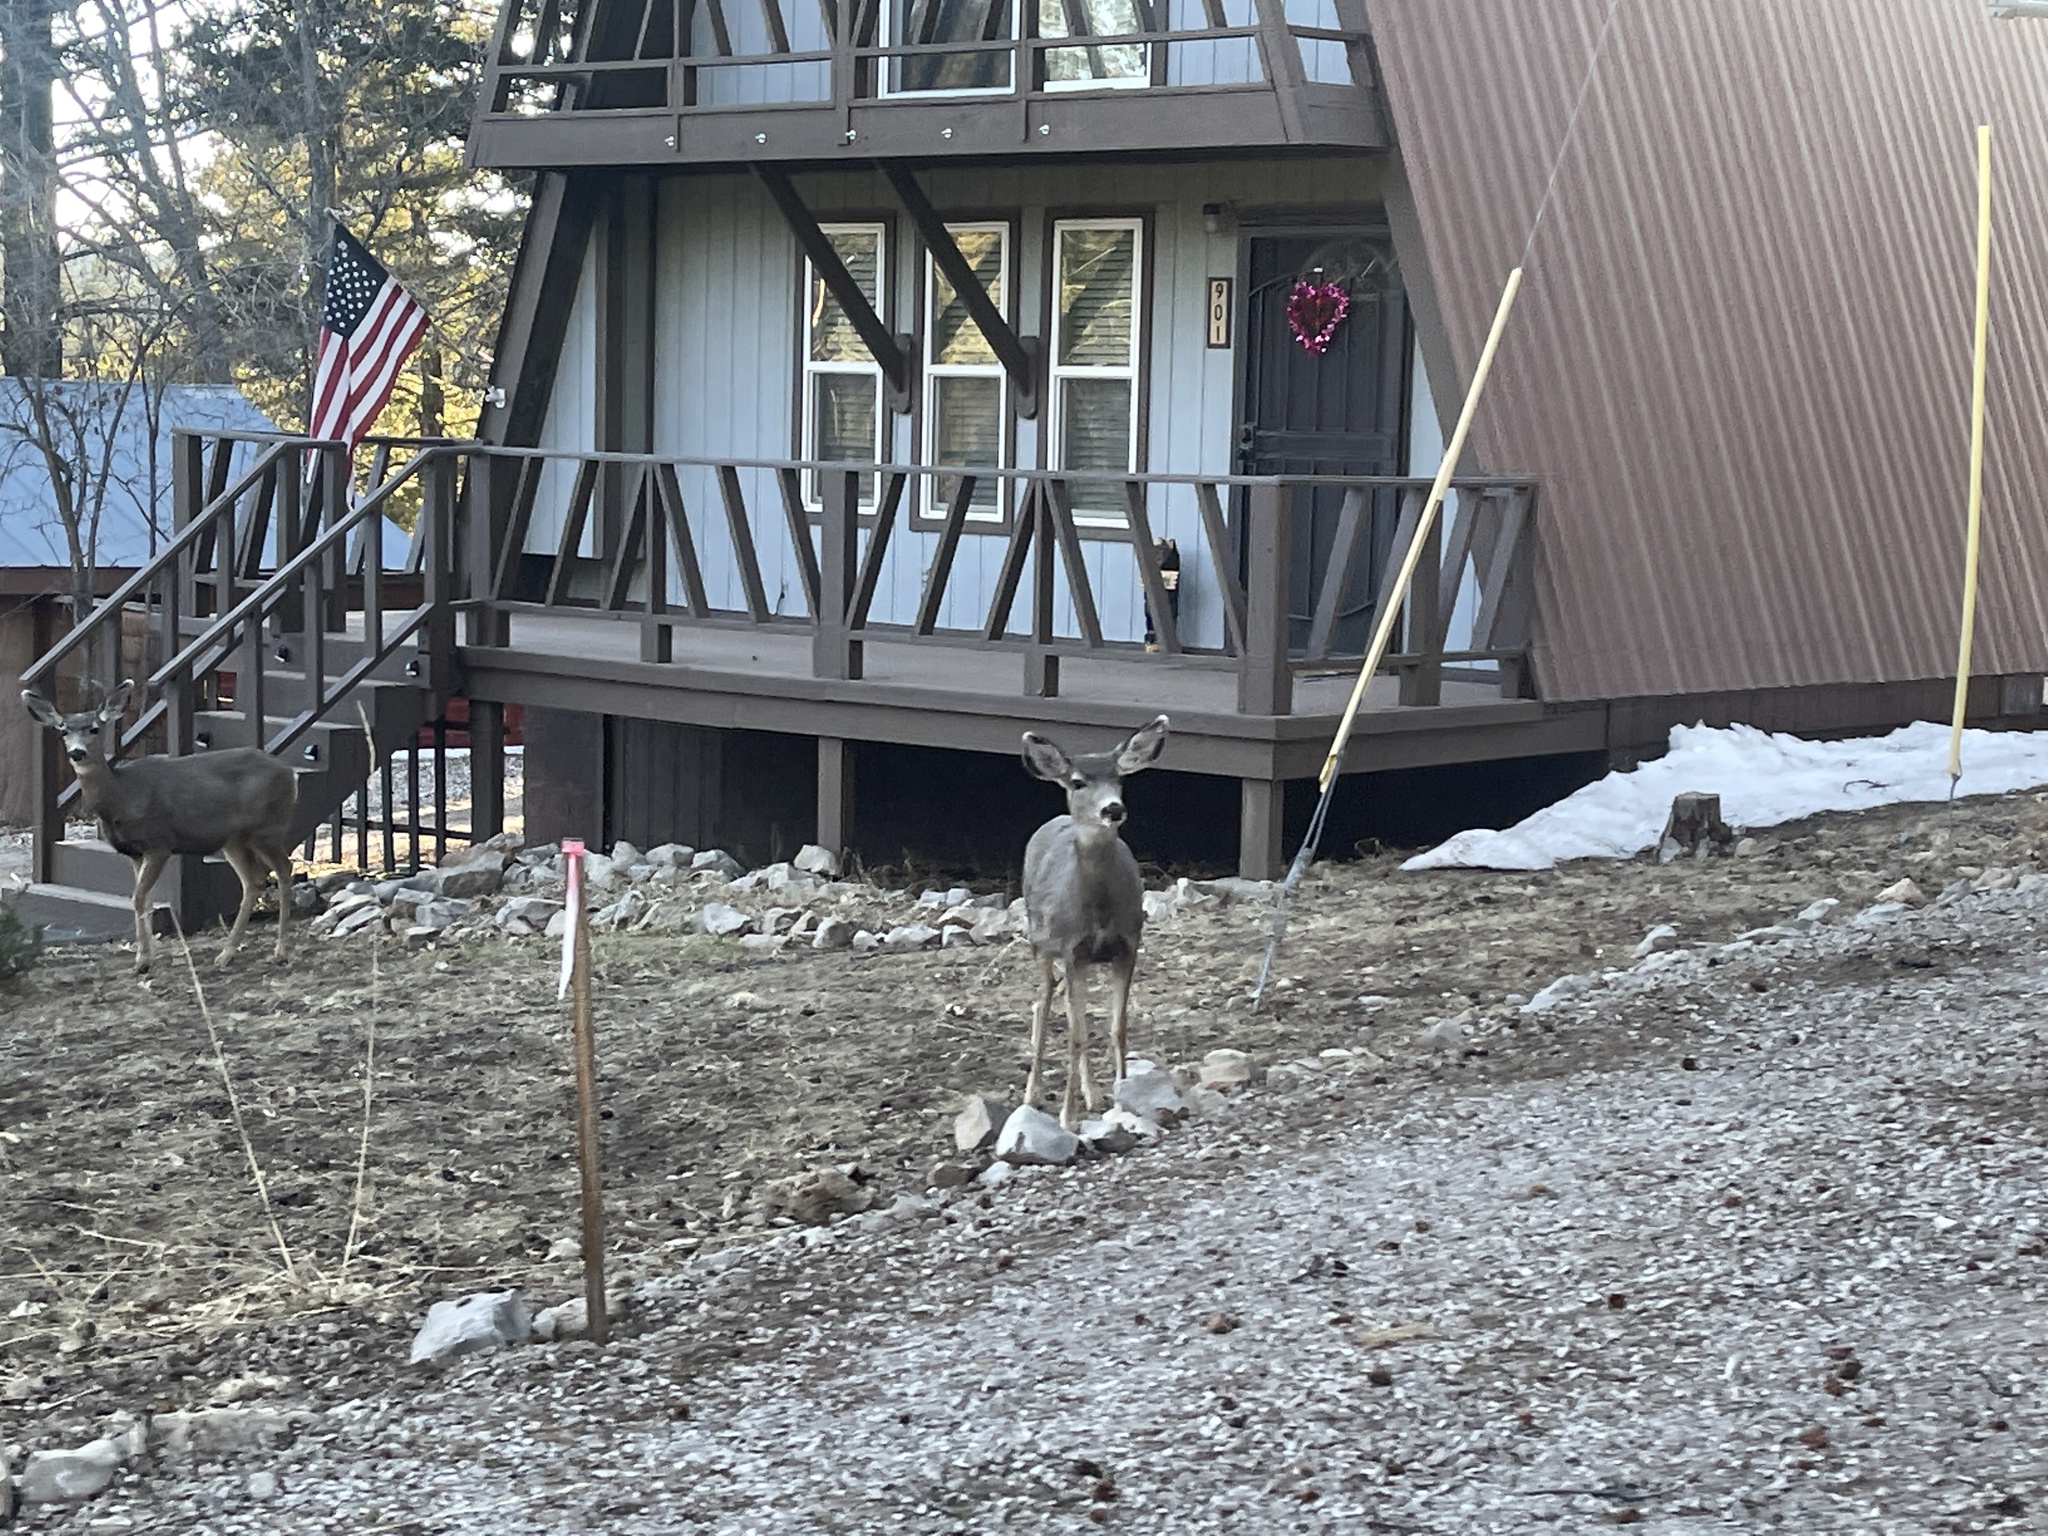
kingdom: Animalia
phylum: Chordata
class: Mammalia
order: Artiodactyla
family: Cervidae
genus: Odocoileus
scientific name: Odocoileus hemionus
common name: Mule deer
